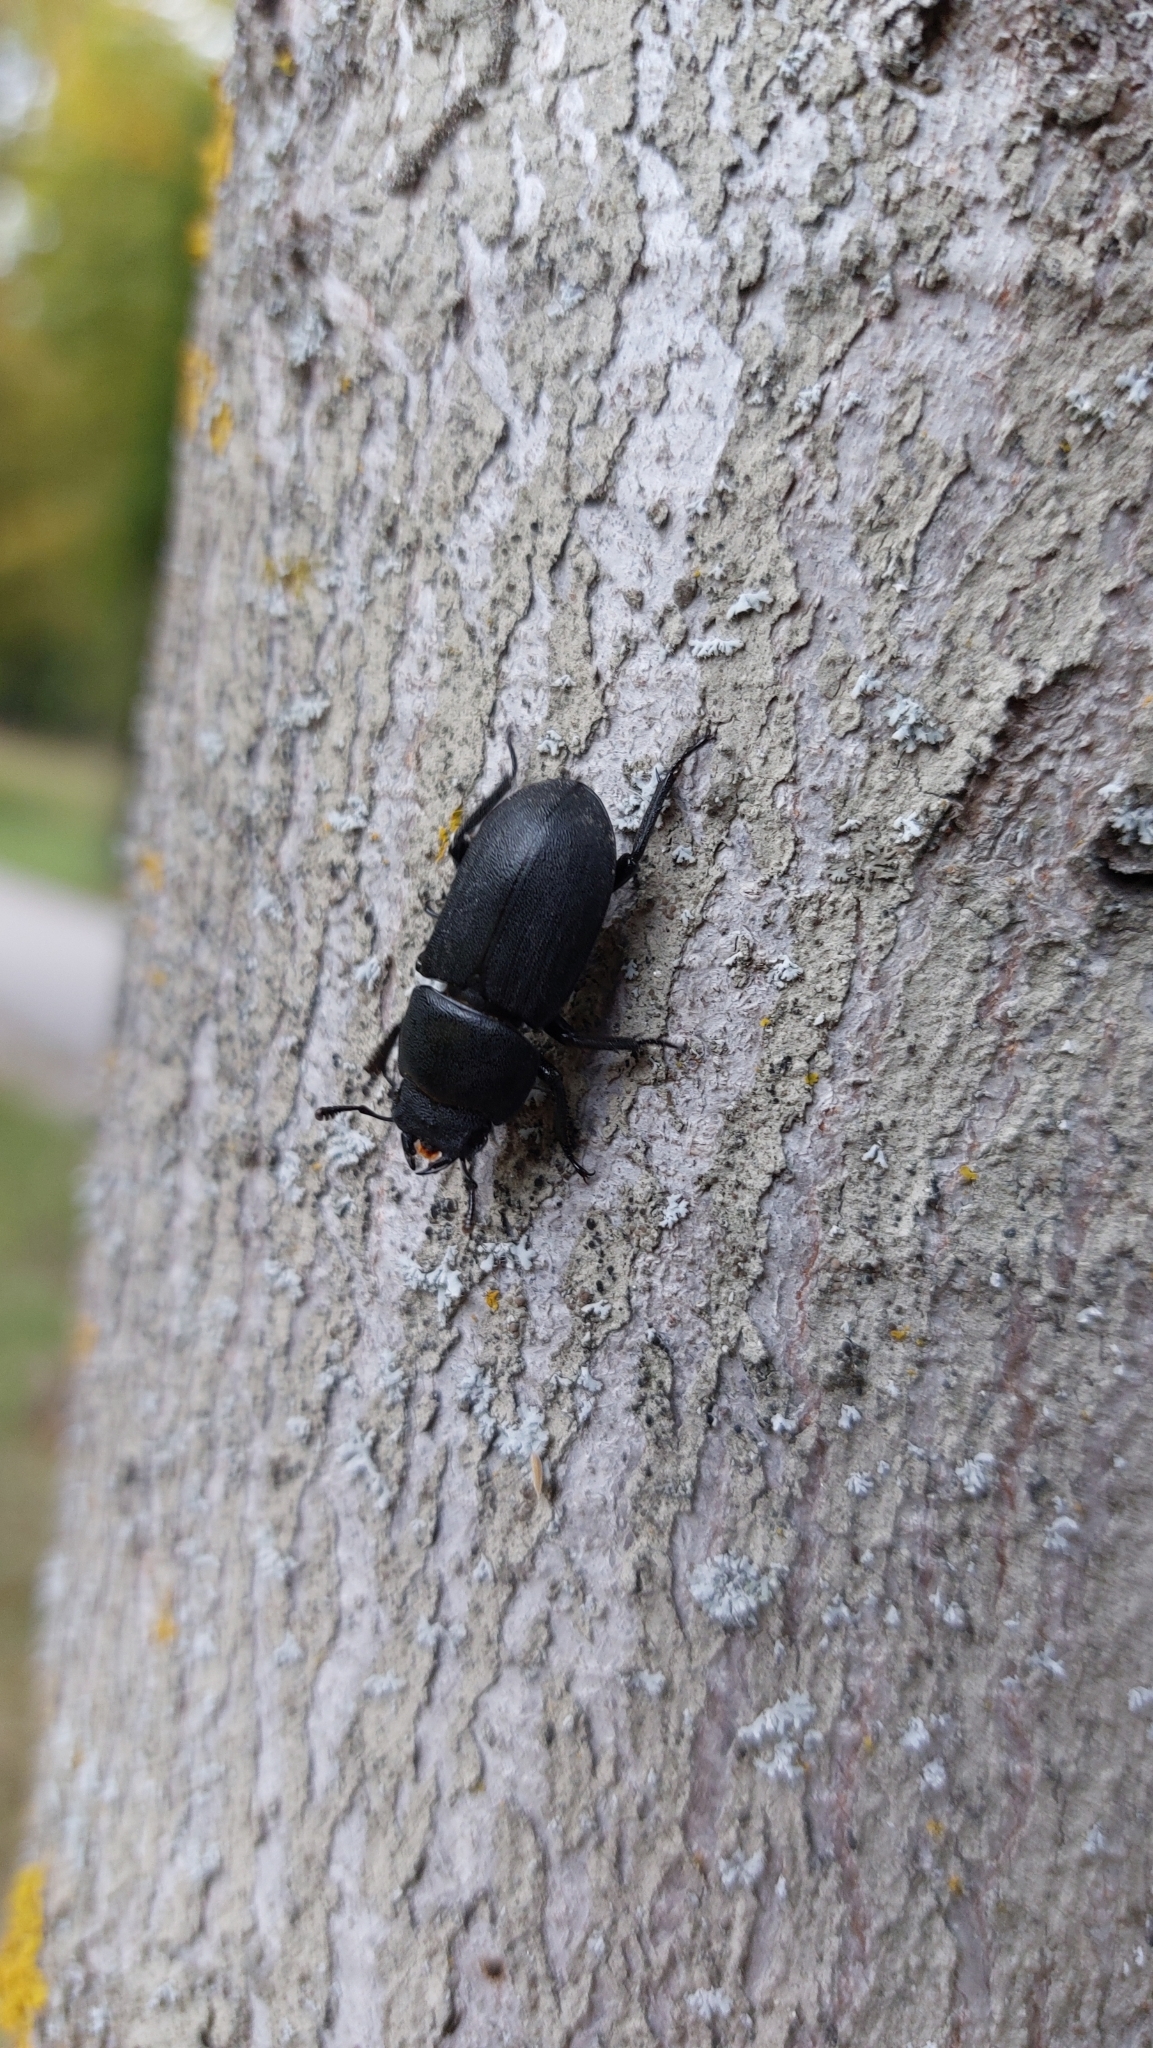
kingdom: Animalia
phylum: Arthropoda
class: Insecta
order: Coleoptera
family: Lucanidae
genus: Dorcus
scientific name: Dorcus parallelipipedus
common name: Lesser stag beetle
